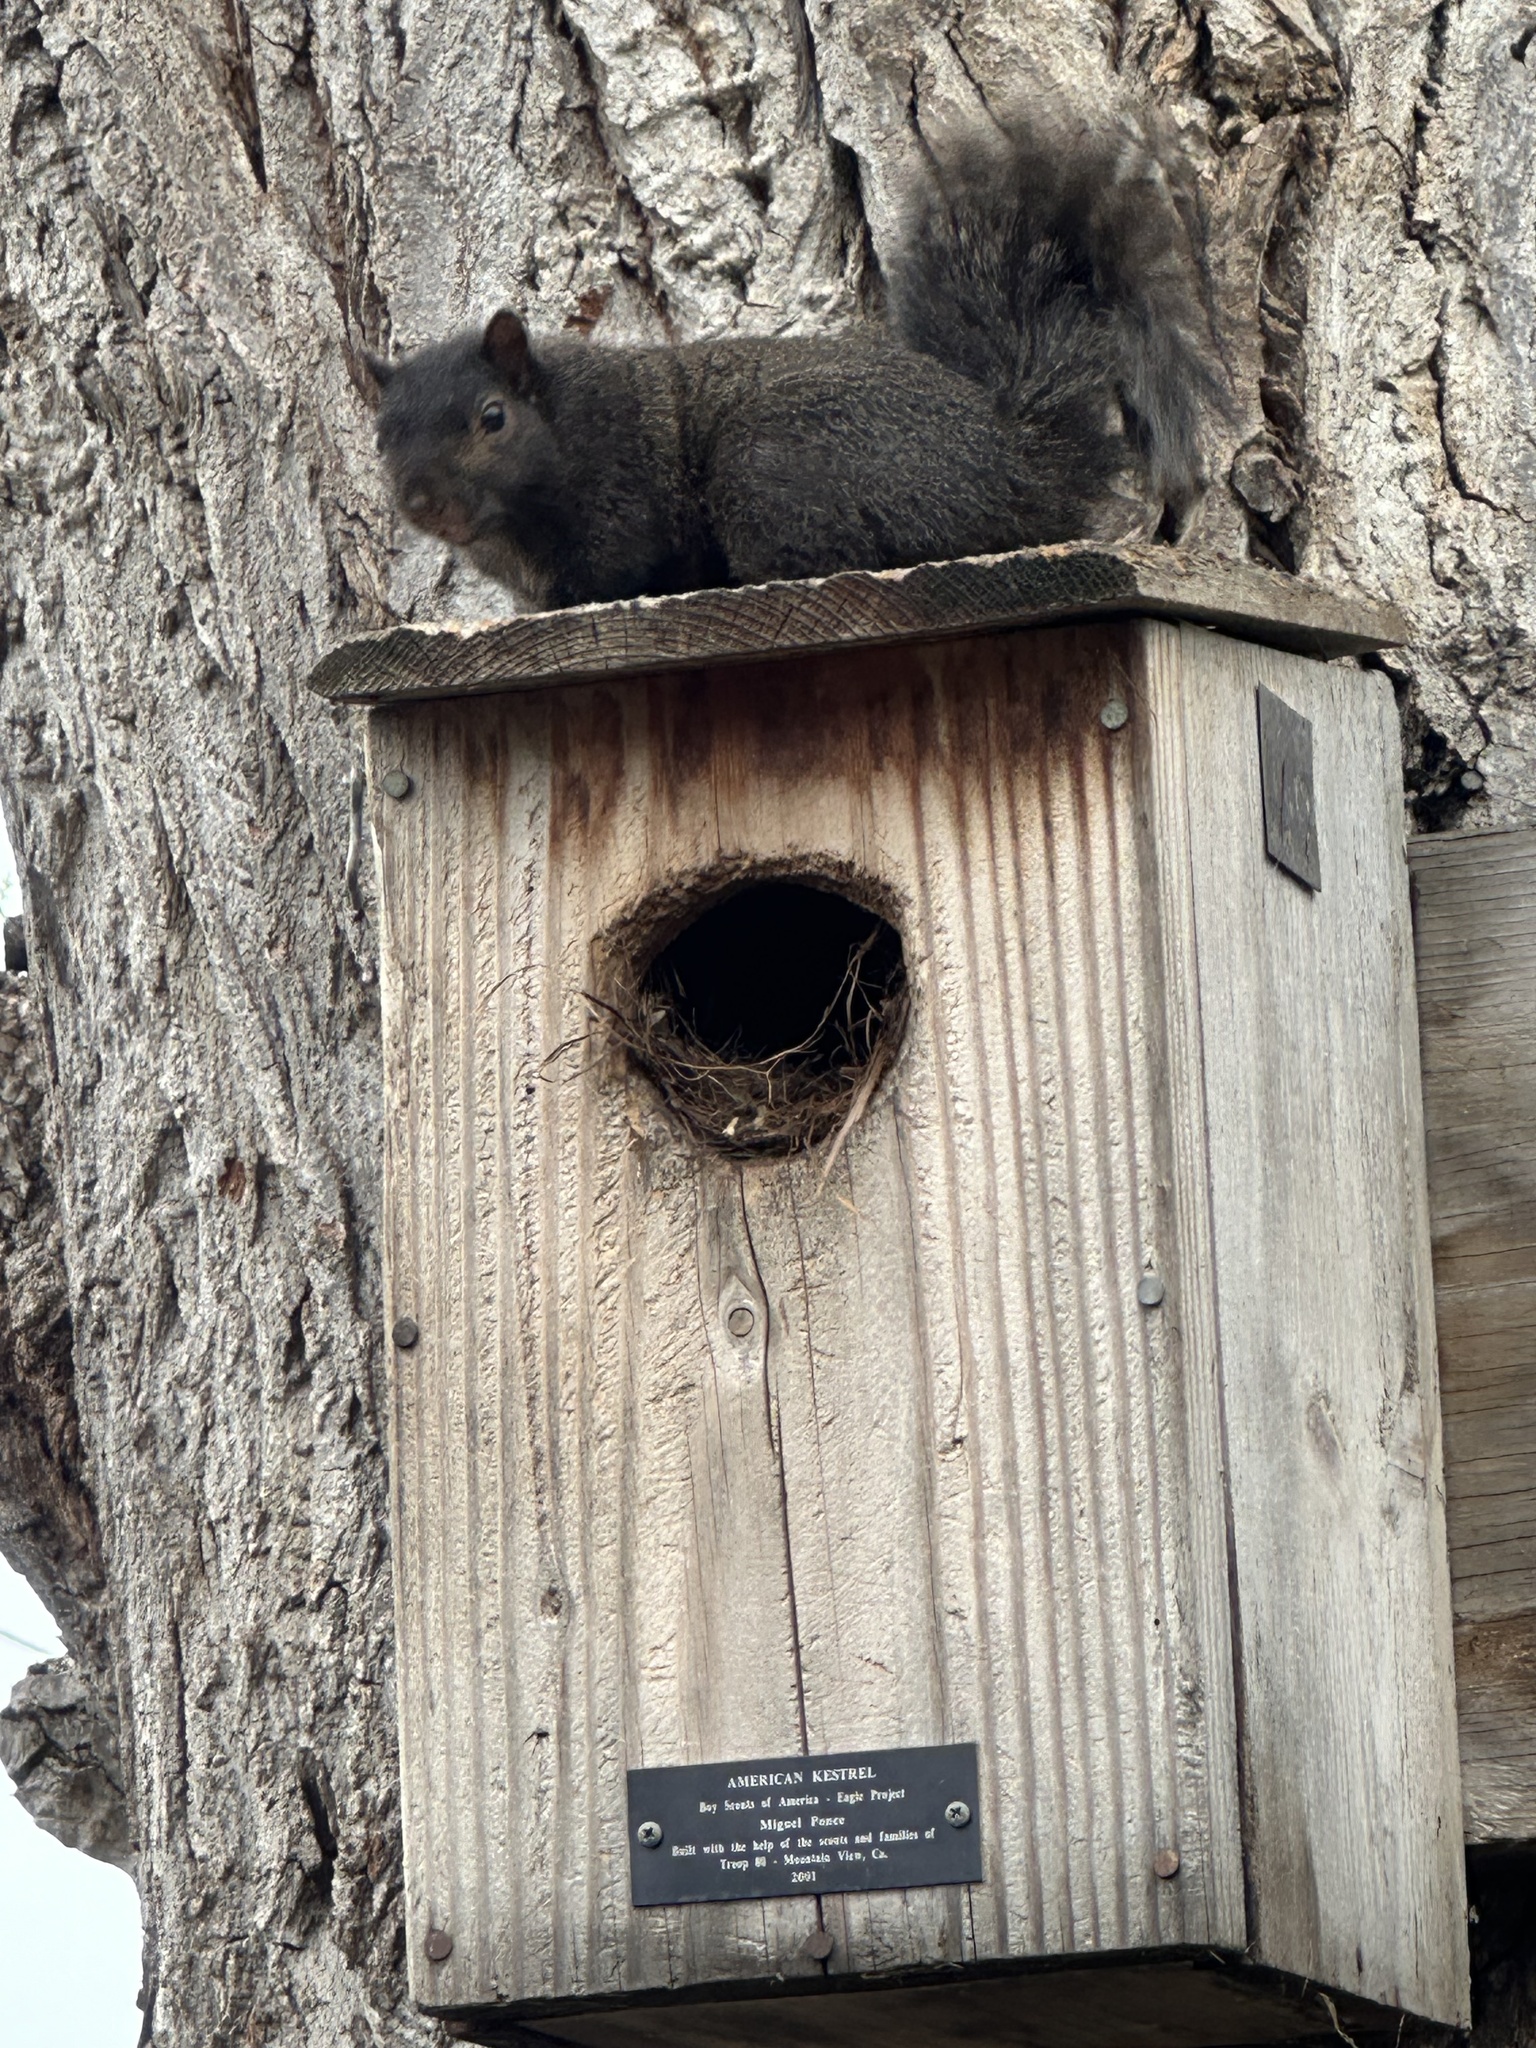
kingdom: Animalia
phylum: Chordata
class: Mammalia
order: Rodentia
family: Sciuridae
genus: Sciurus
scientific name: Sciurus carolinensis
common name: Eastern gray squirrel
